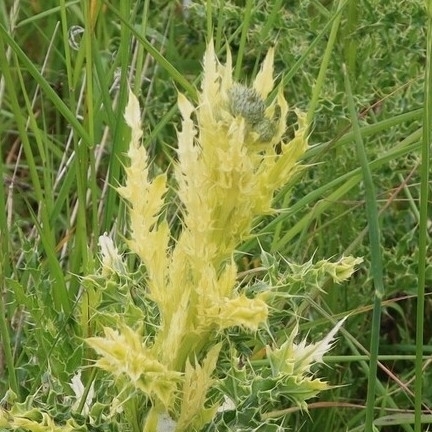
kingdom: Bacteria
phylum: Proteobacteria
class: Gammaproteobacteria
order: Pseudomonadales
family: Pseudomonadaceae
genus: Pseudomonas
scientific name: Pseudomonas syringae
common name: Bacterial speck
